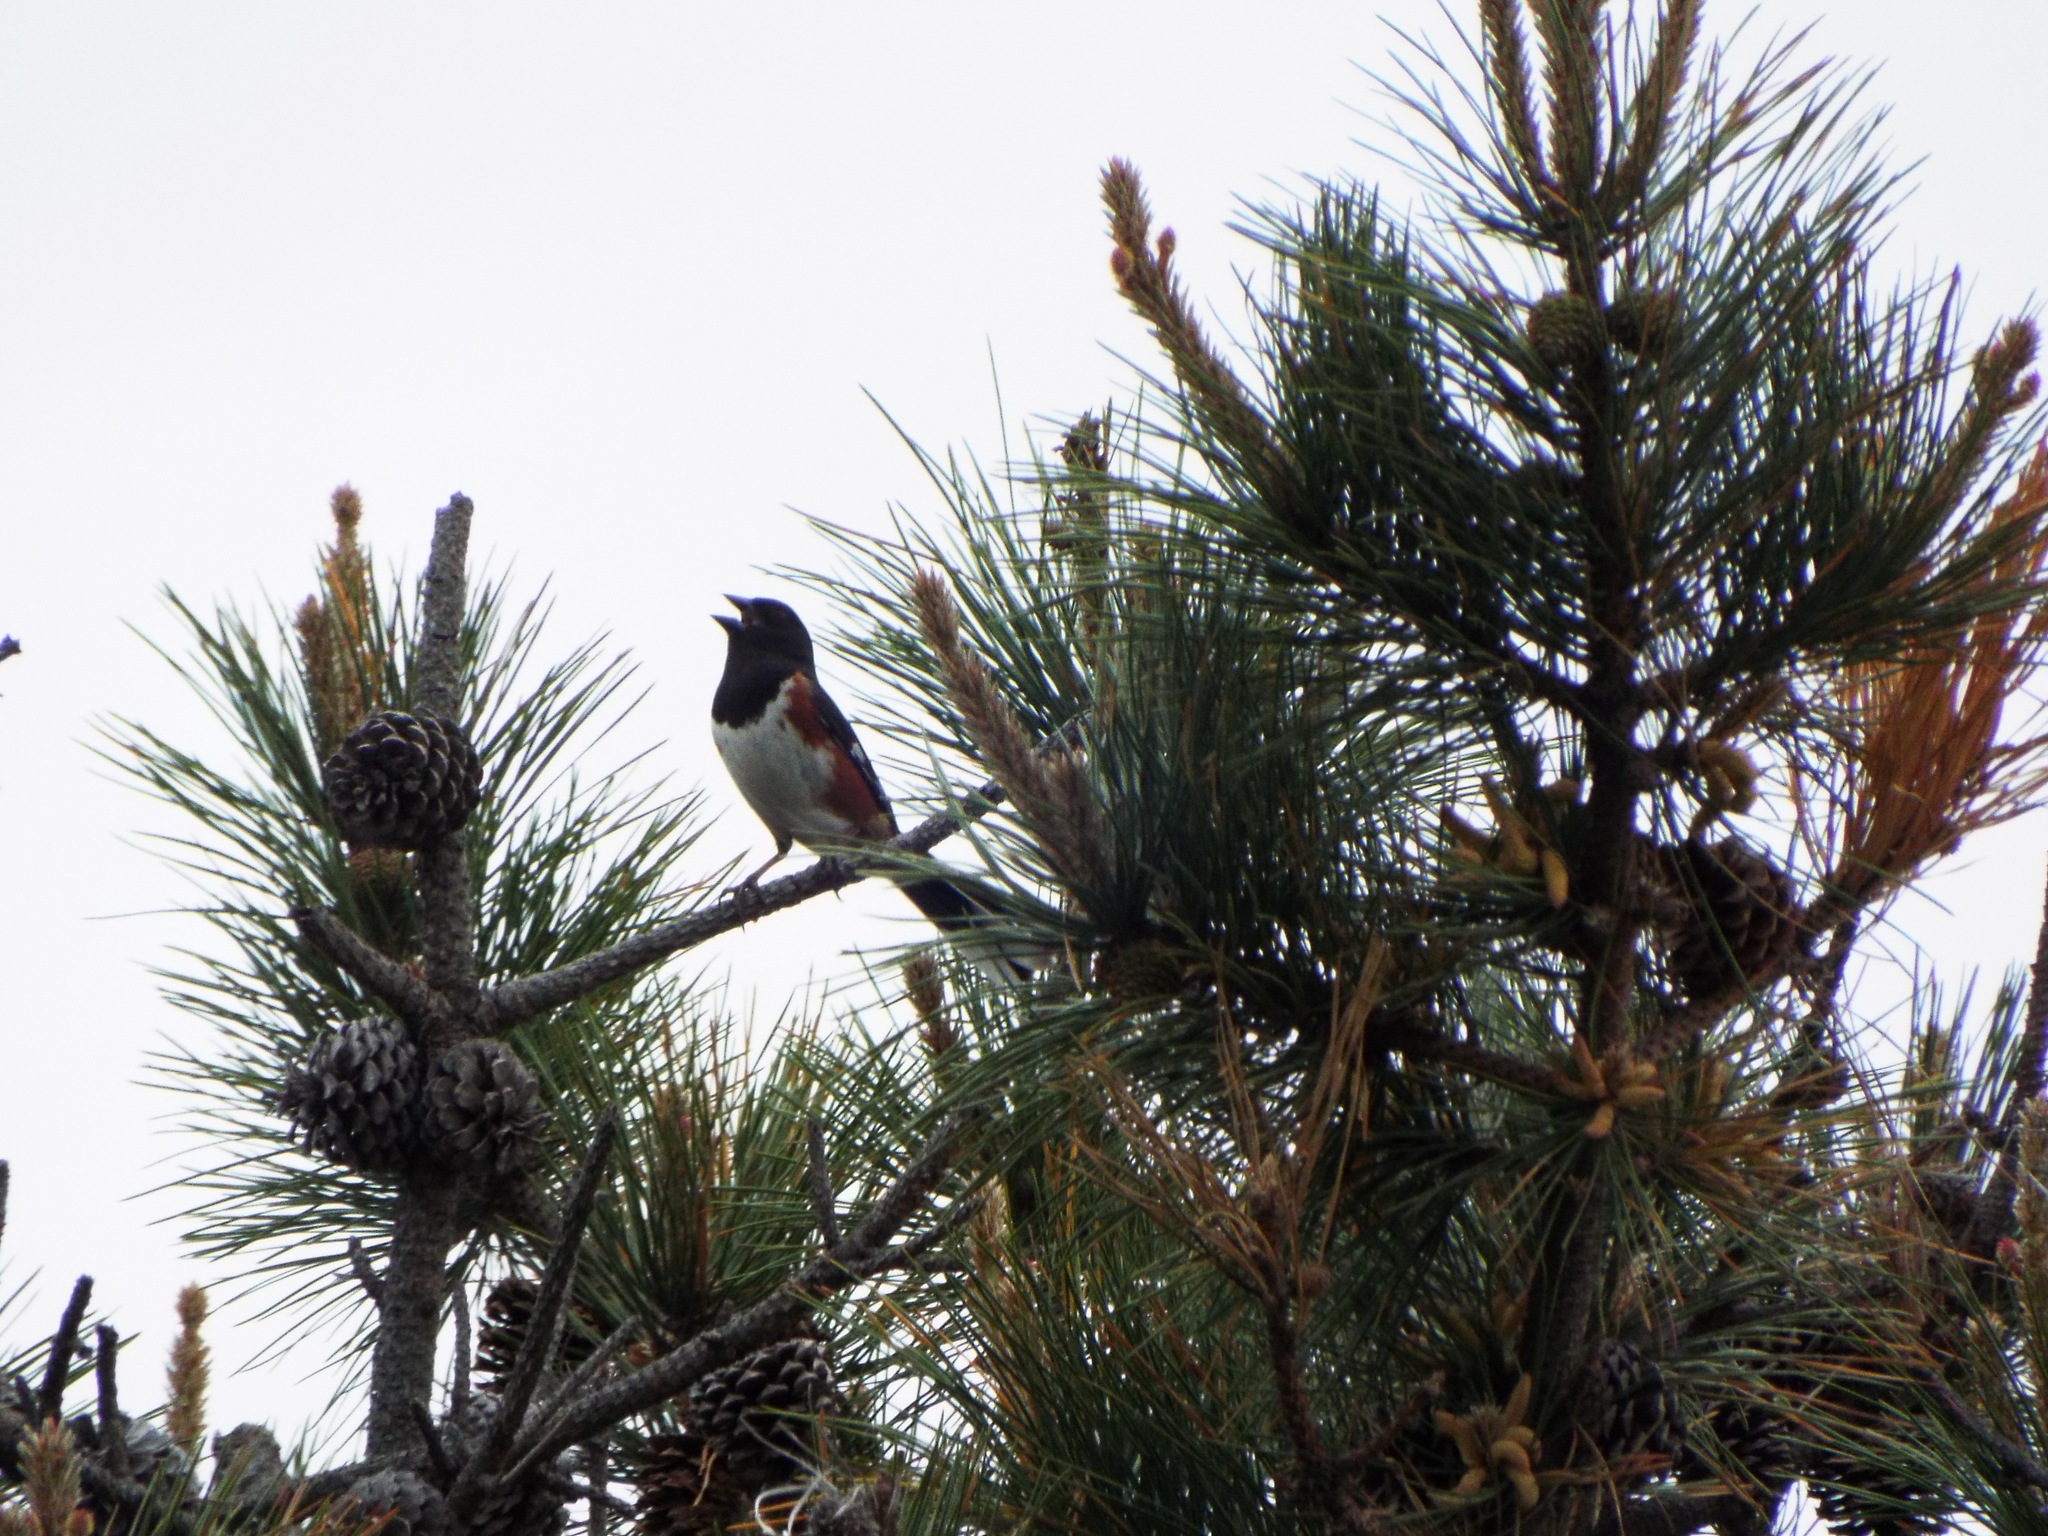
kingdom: Animalia
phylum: Chordata
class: Aves
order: Passeriformes
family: Passerellidae
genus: Pipilo
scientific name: Pipilo erythrophthalmus
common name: Eastern towhee
